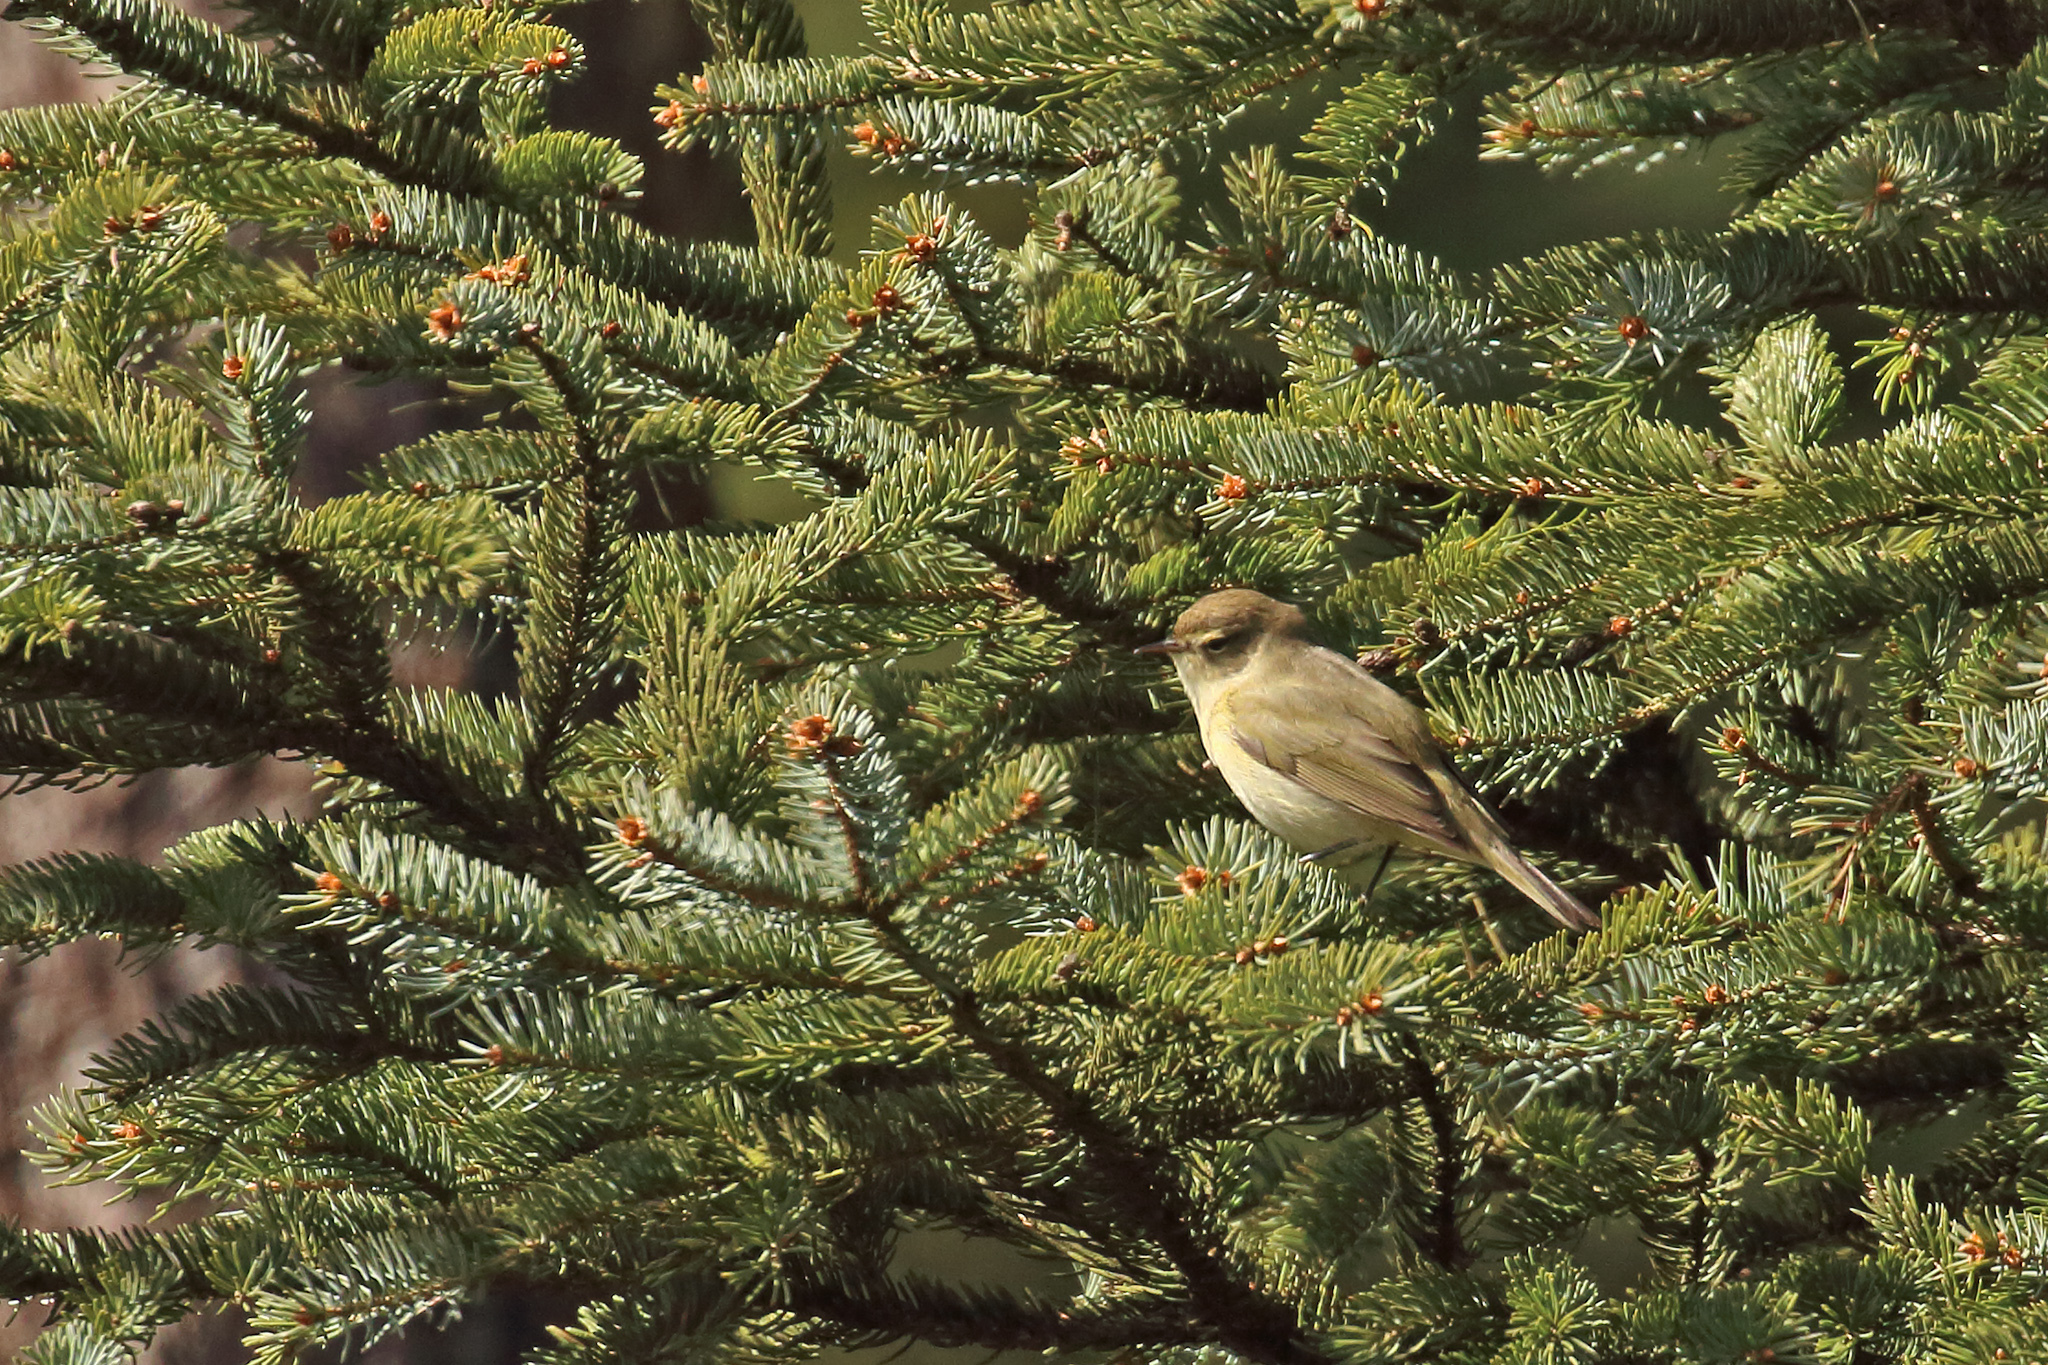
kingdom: Animalia
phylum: Chordata
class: Aves
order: Passeriformes
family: Phylloscopidae
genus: Phylloscopus
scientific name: Phylloscopus collybita
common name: Common chiffchaff
